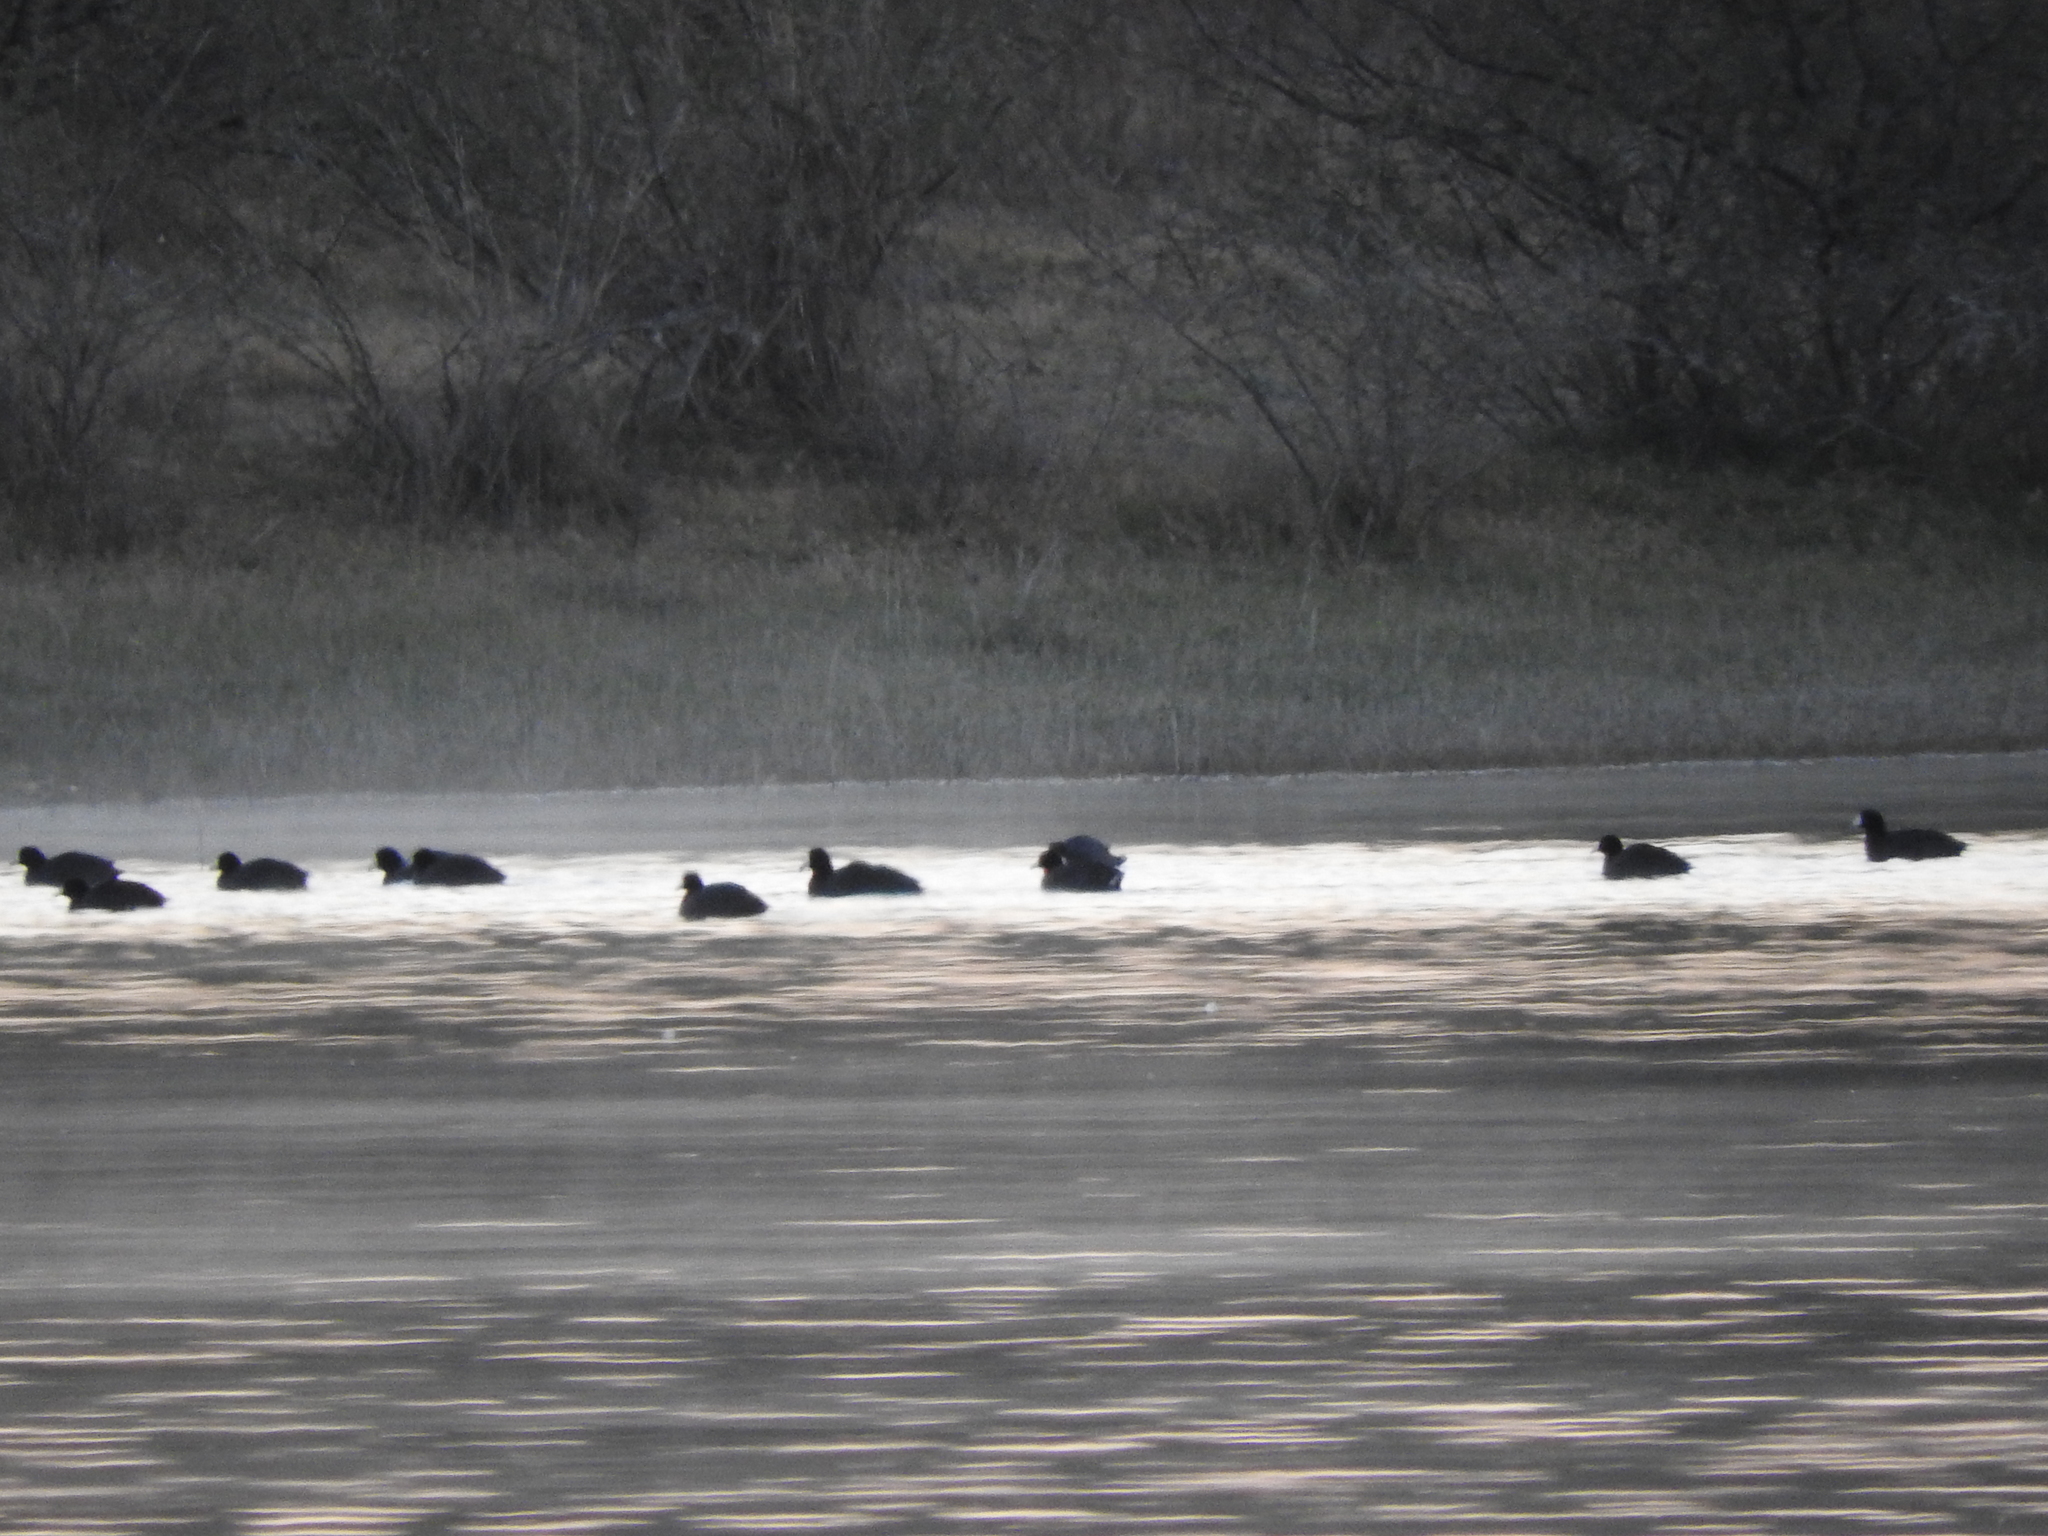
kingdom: Animalia
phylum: Chordata
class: Aves
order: Gruiformes
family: Rallidae
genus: Fulica
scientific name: Fulica americana
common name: American coot
